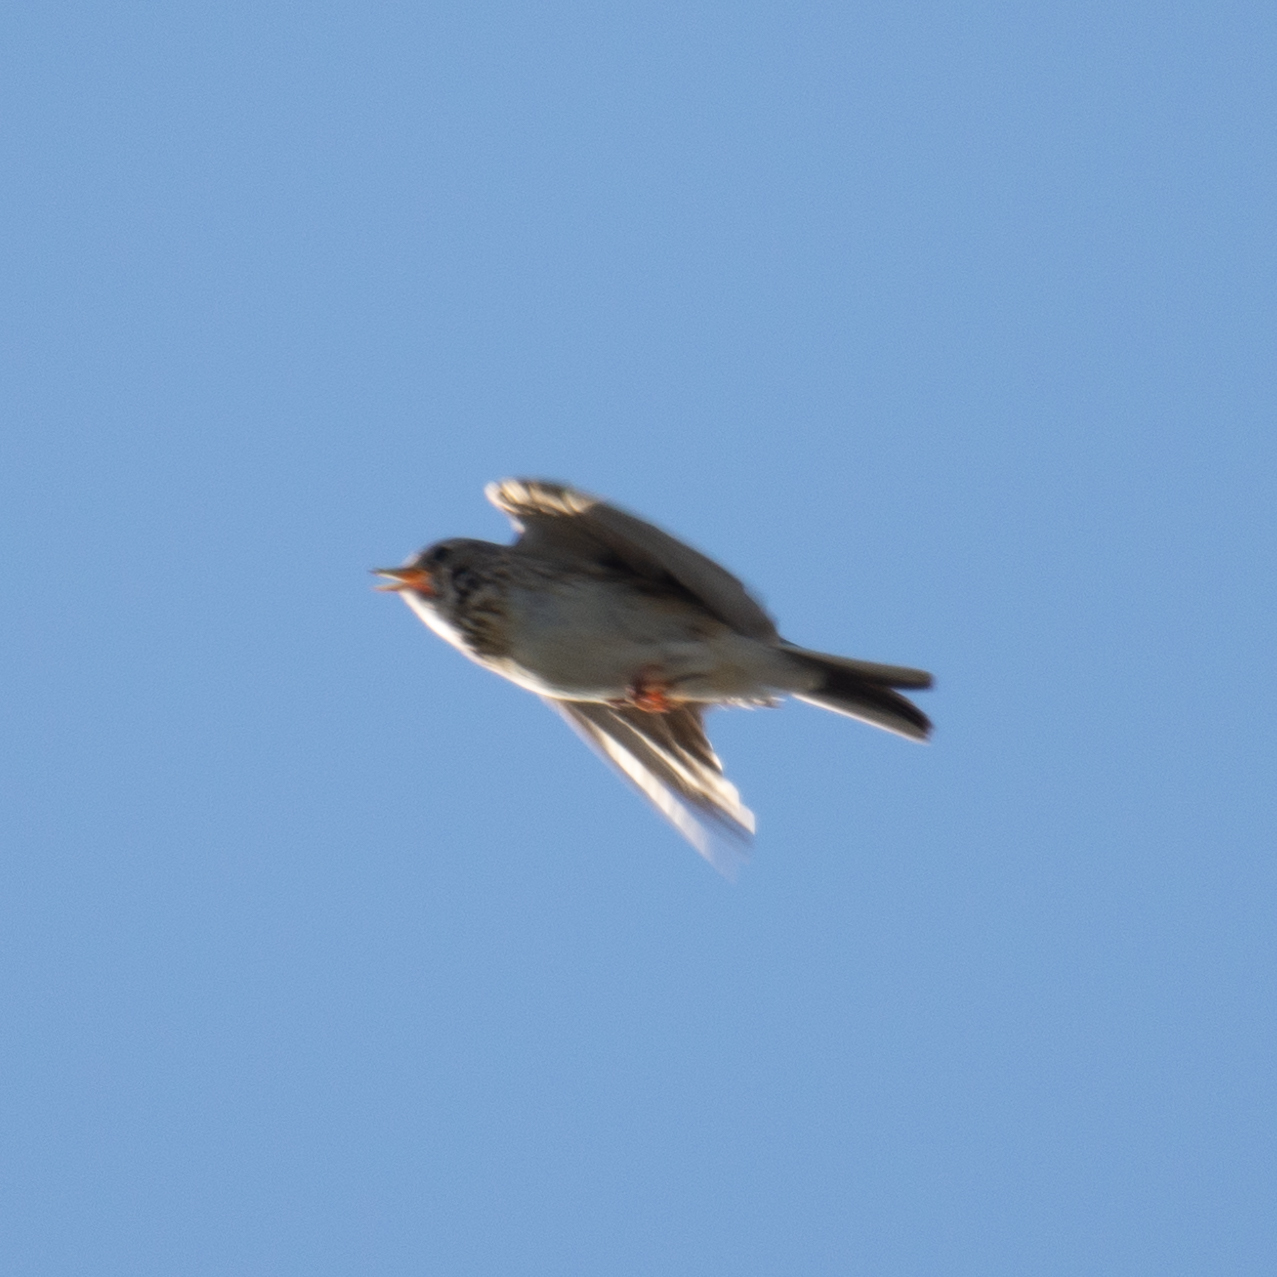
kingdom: Animalia
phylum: Chordata
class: Aves
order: Passeriformes
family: Alaudidae
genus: Alauda
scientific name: Alauda arvensis
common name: Eurasian skylark
